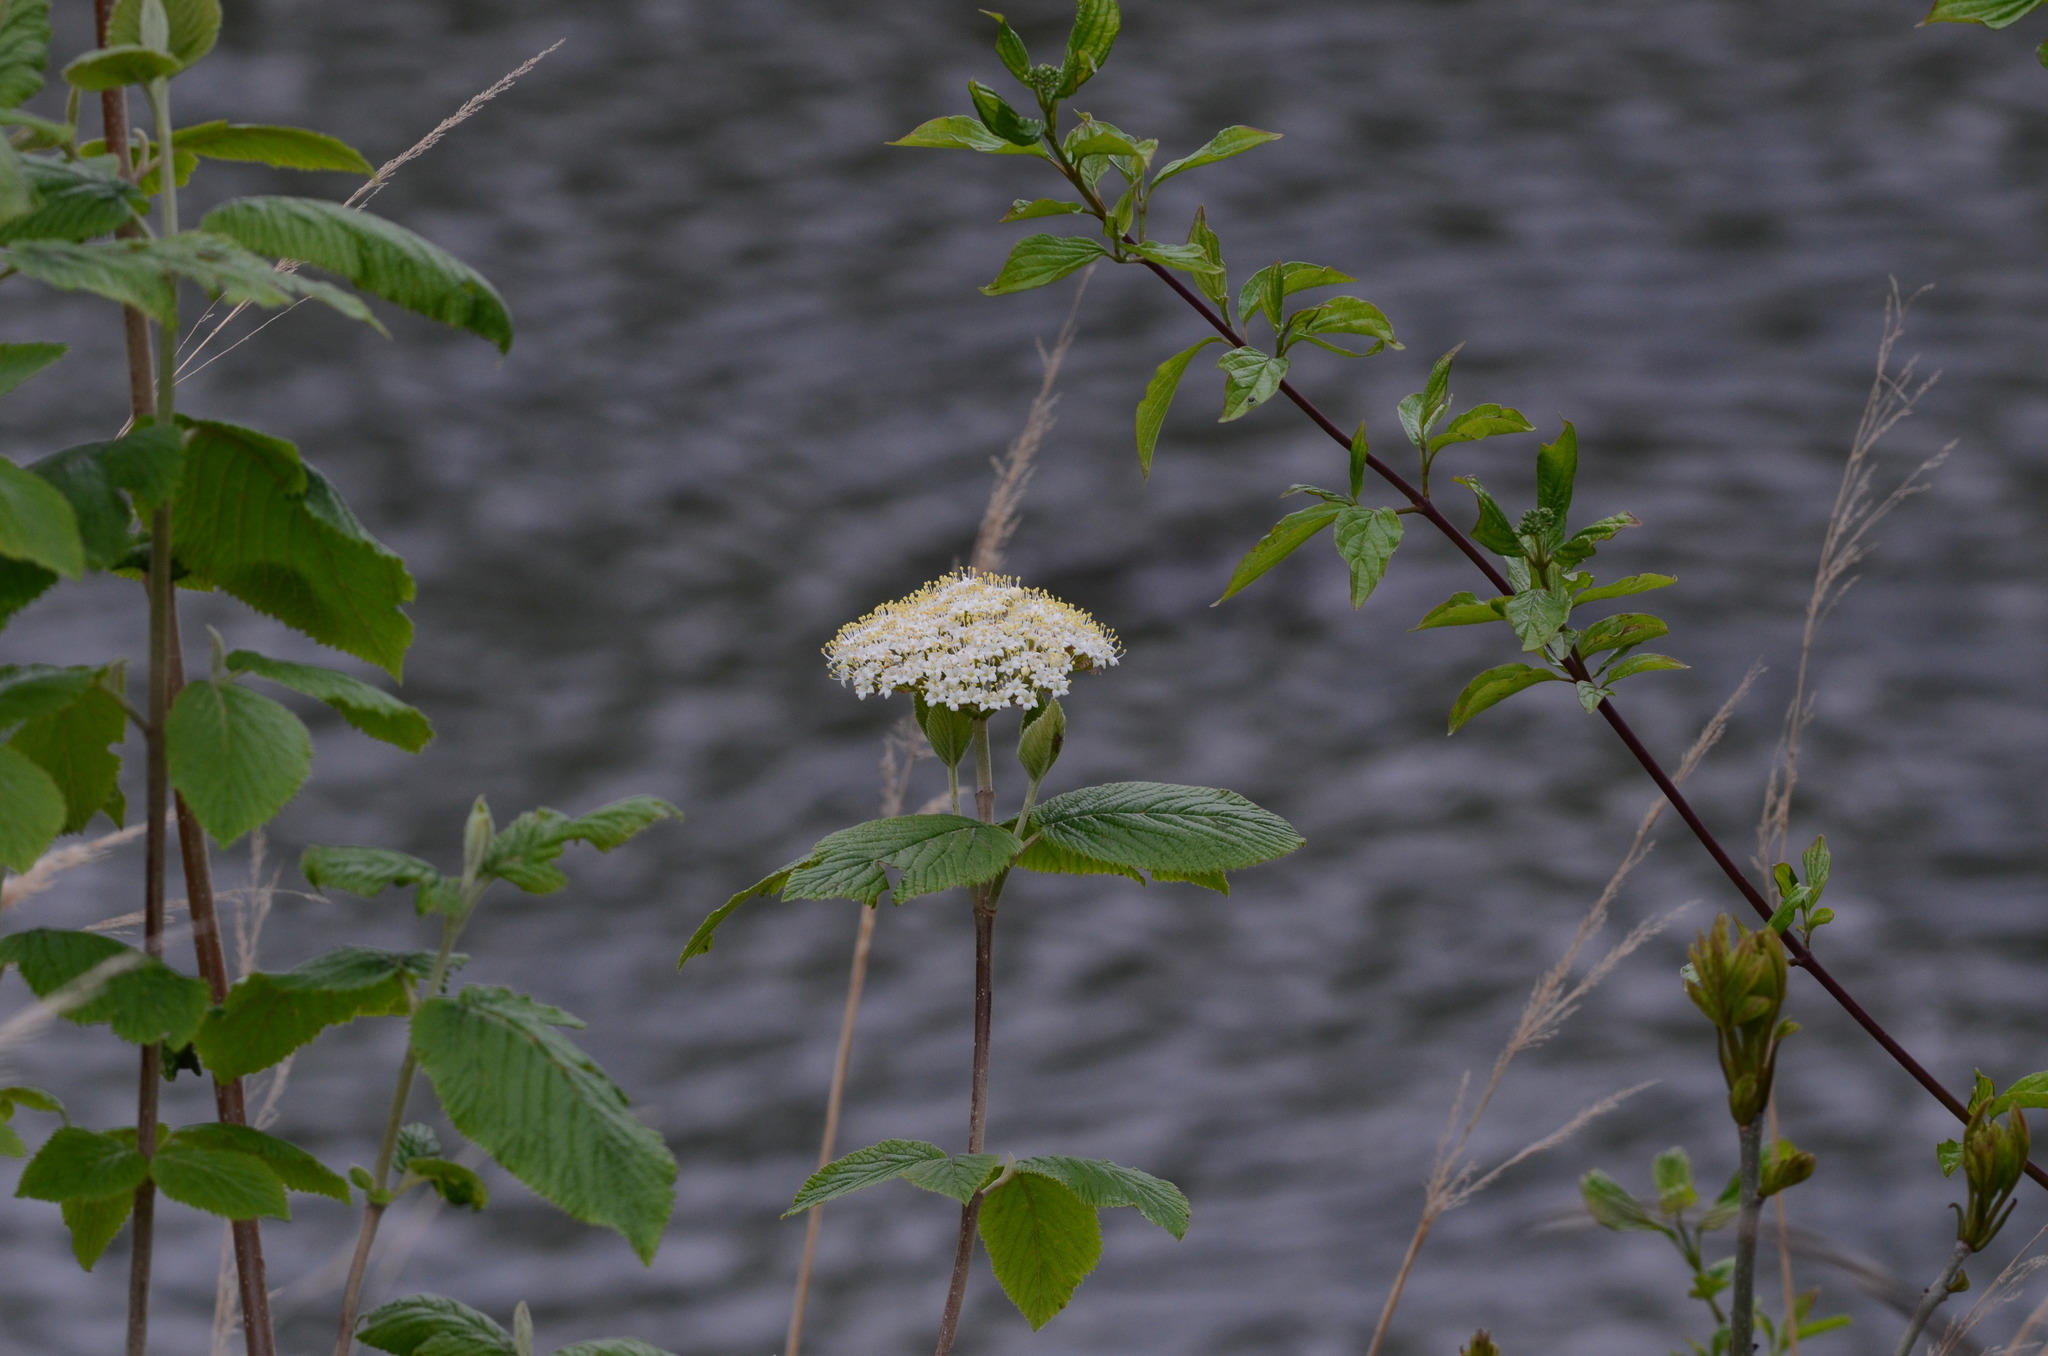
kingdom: Plantae
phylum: Tracheophyta
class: Magnoliopsida
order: Dipsacales
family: Viburnaceae
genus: Viburnum
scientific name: Viburnum lantana
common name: Wayfaring tree
